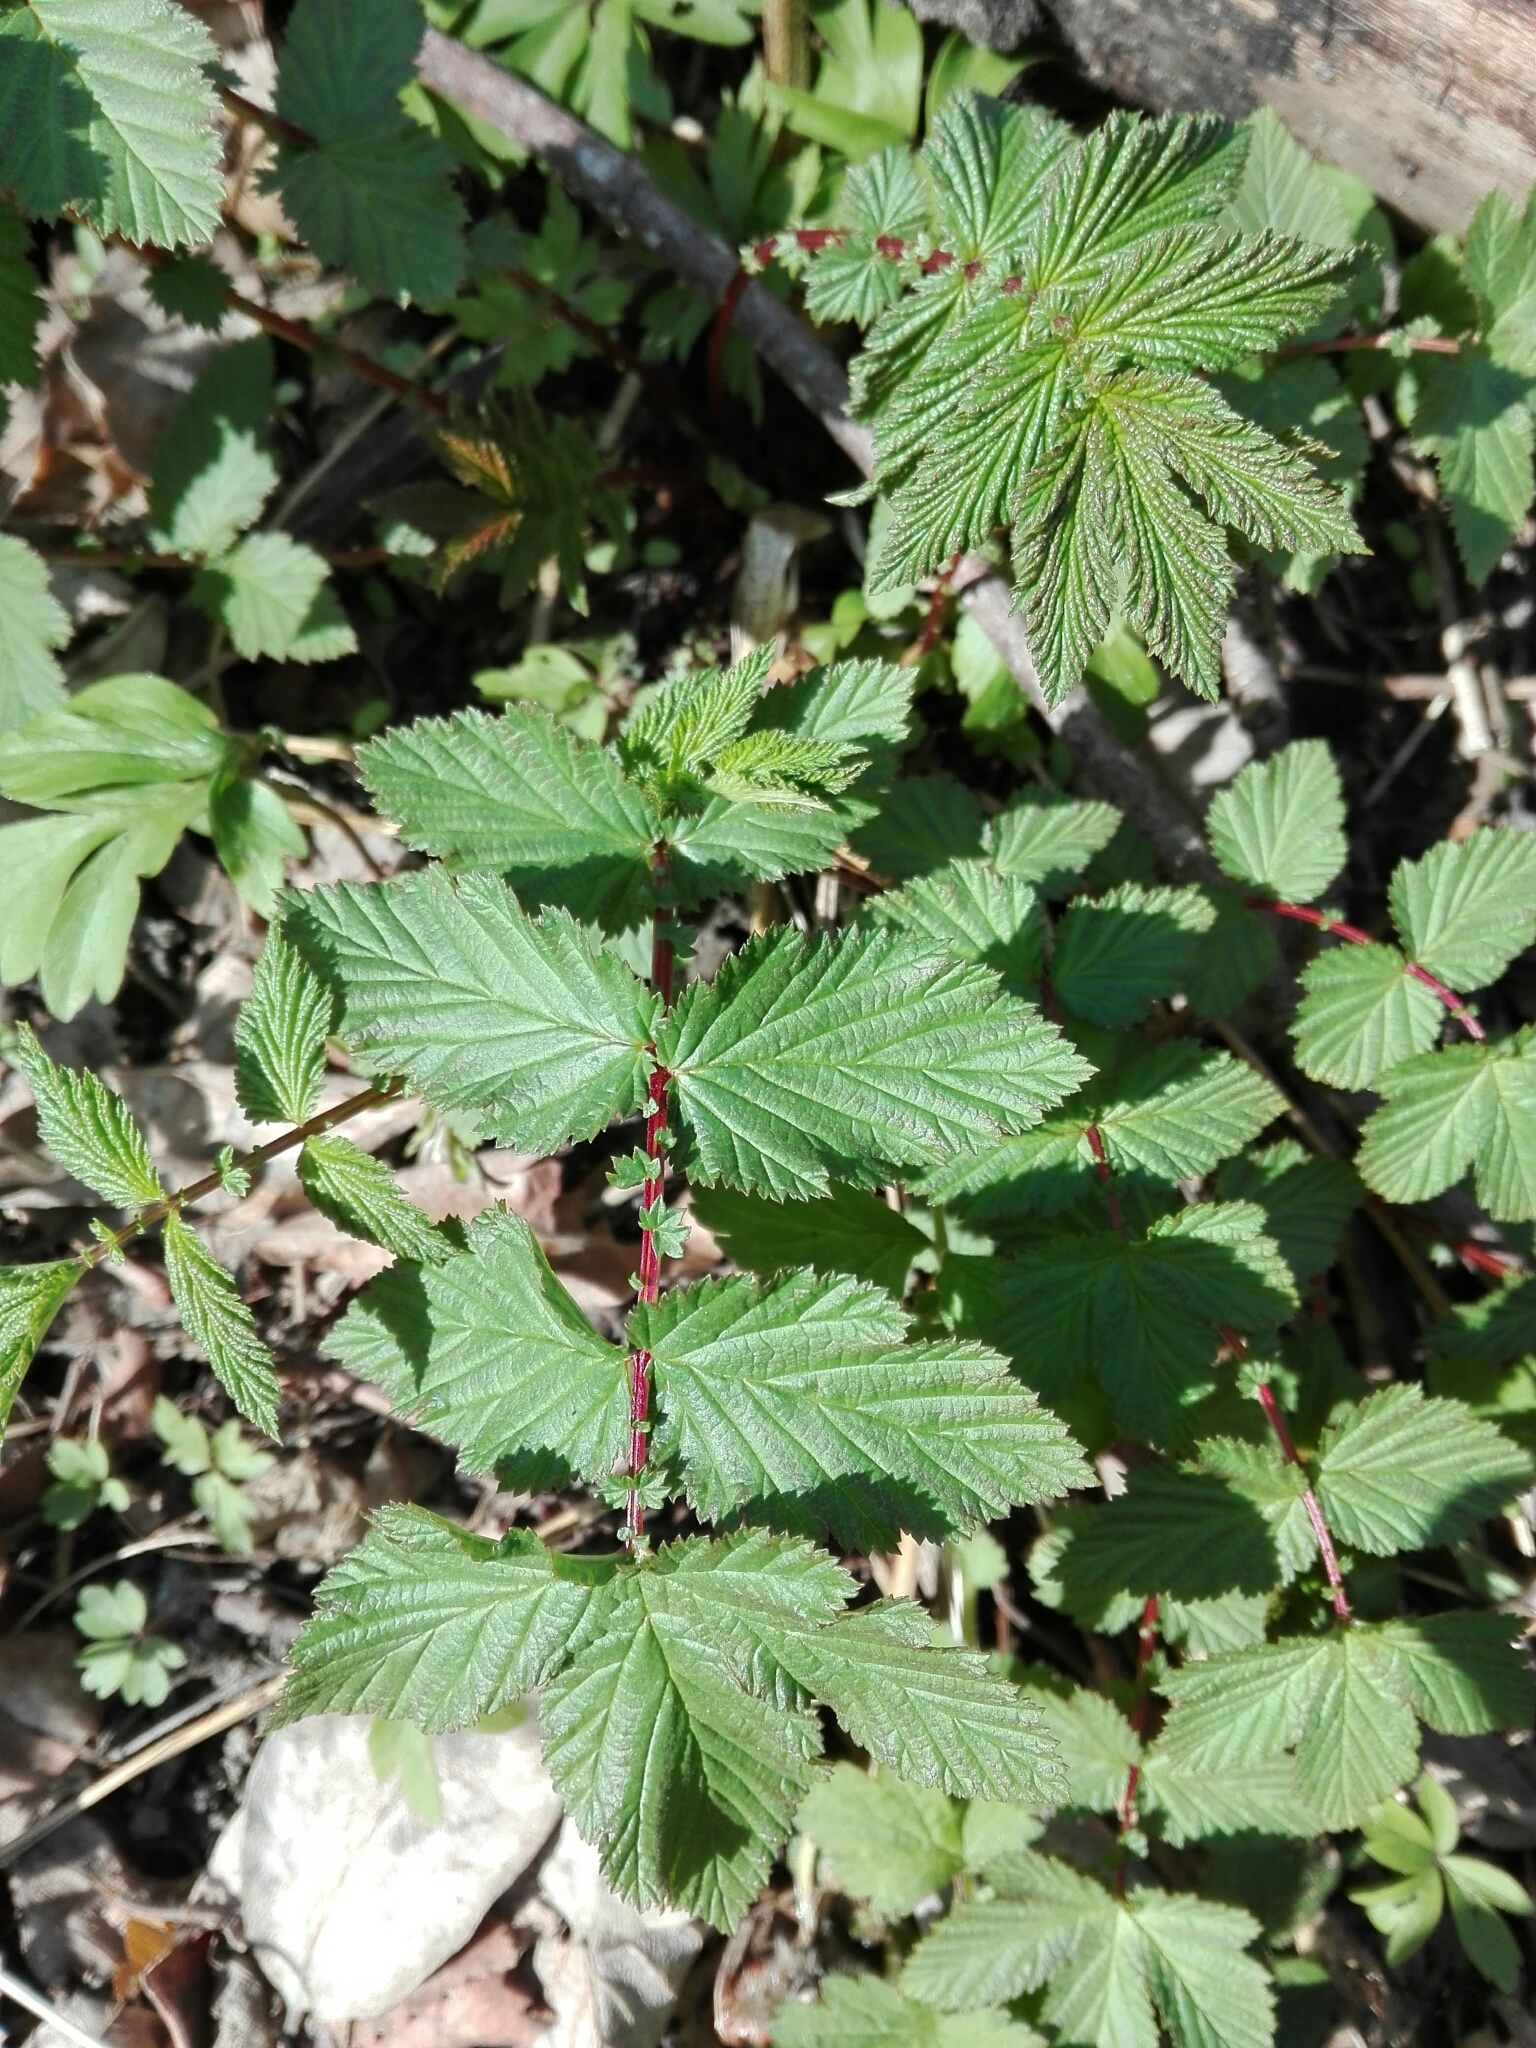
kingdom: Plantae
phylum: Tracheophyta
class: Magnoliopsida
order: Rosales
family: Rosaceae
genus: Filipendula
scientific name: Filipendula ulmaria
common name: Meadowsweet
